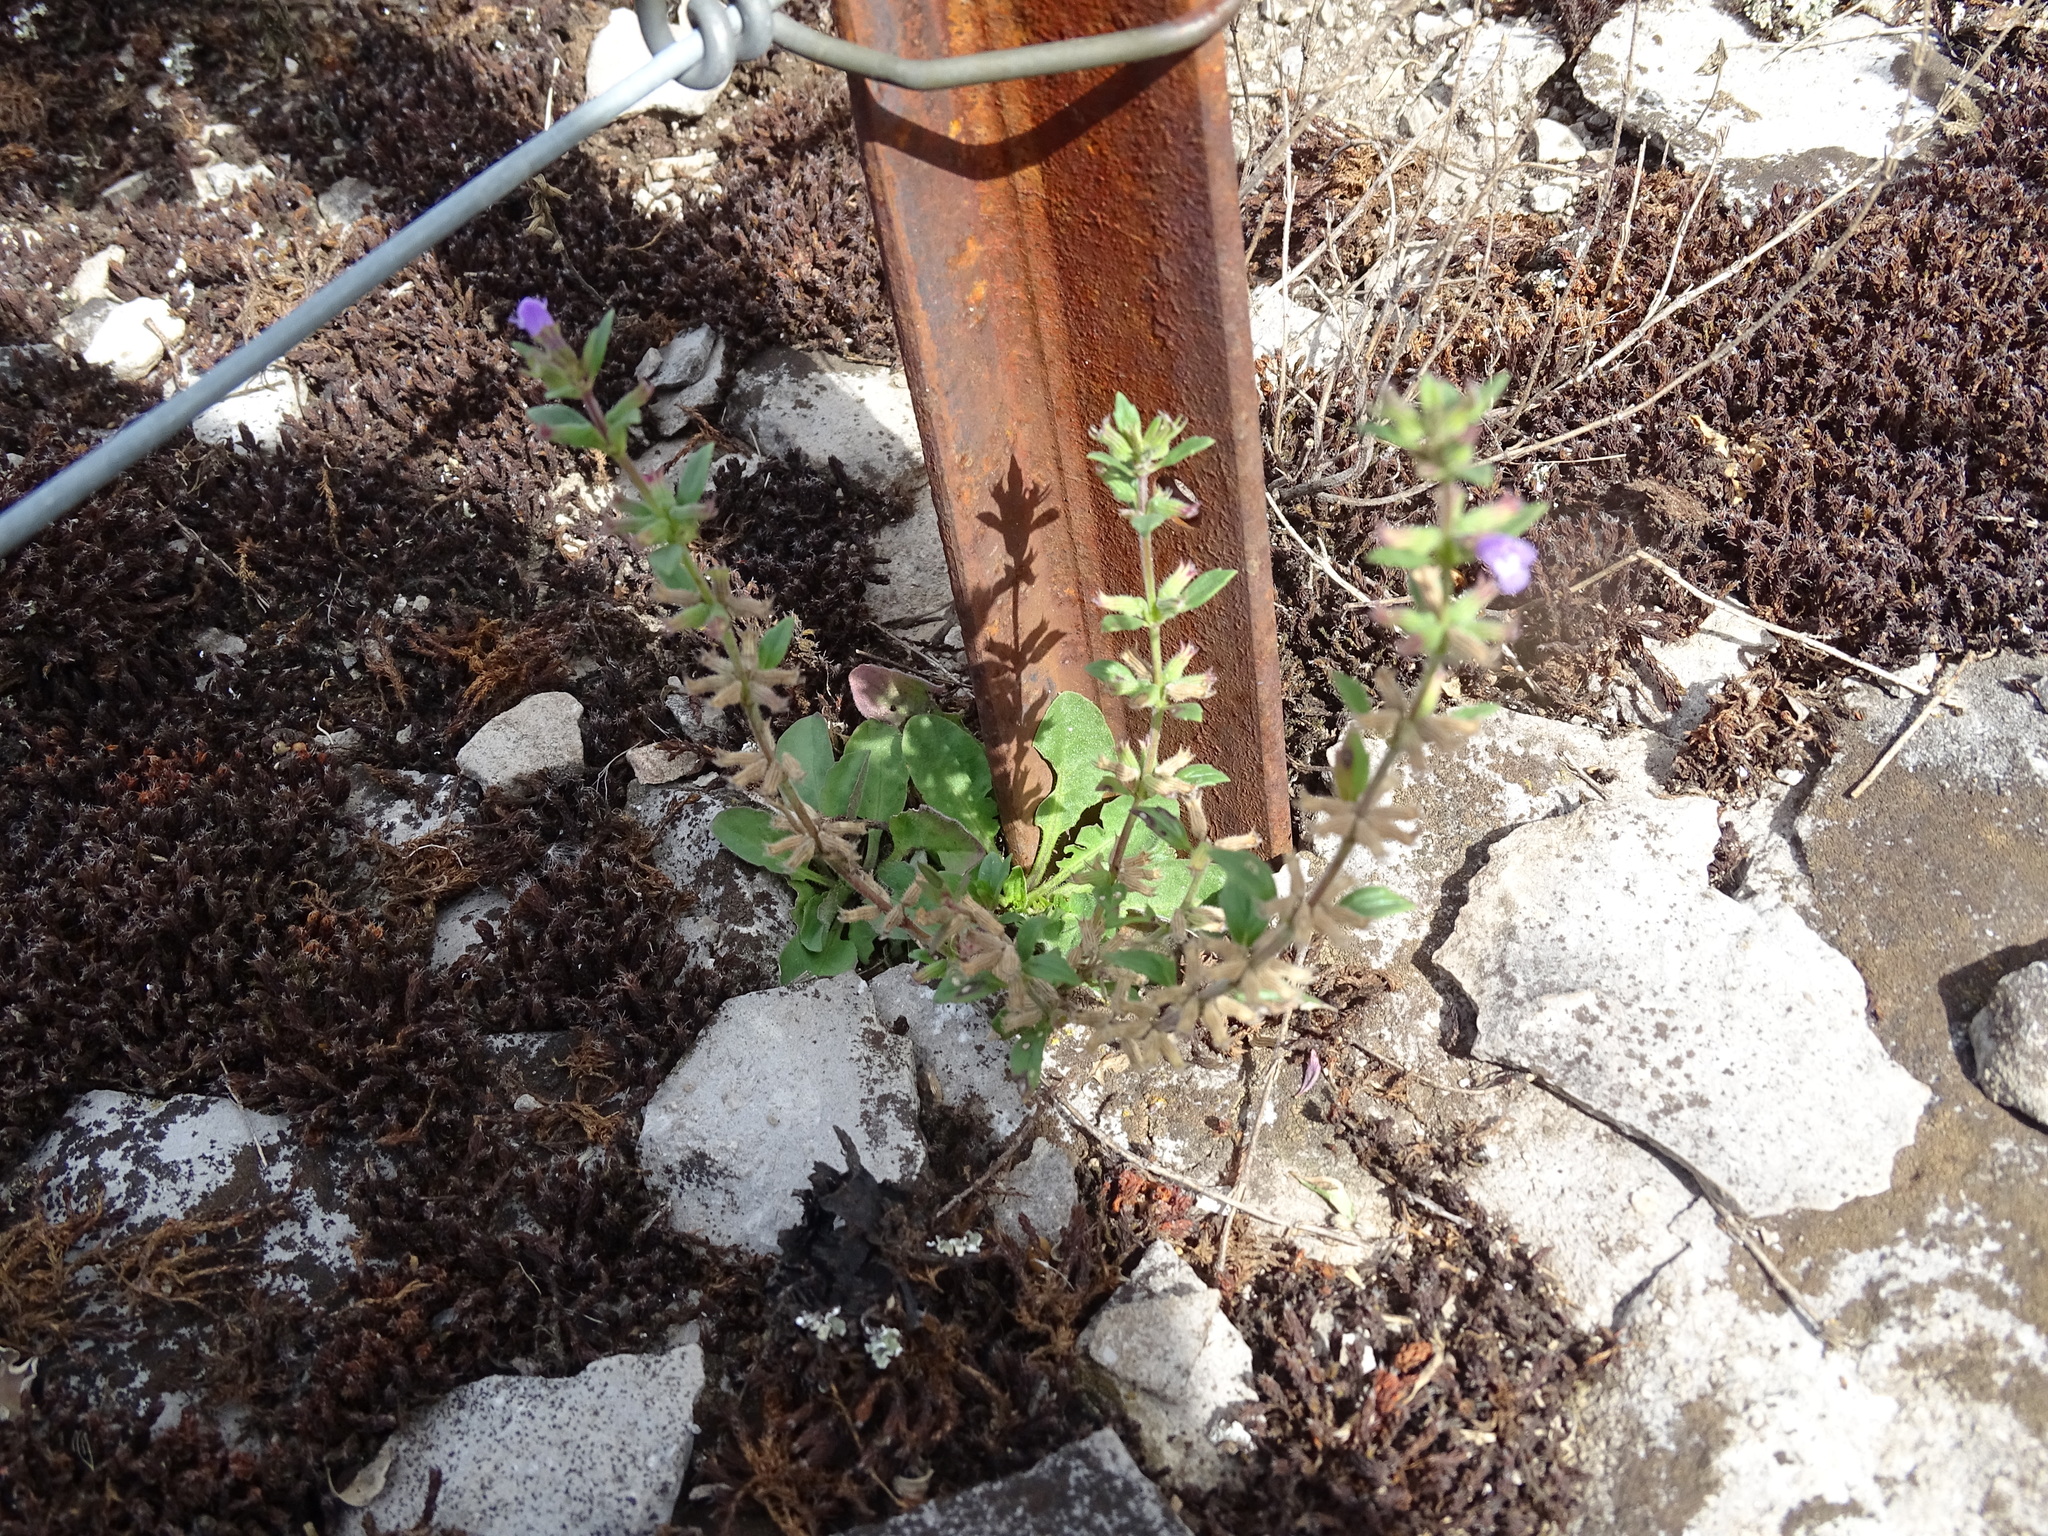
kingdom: Plantae
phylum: Tracheophyta
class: Magnoliopsida
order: Lamiales
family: Lamiaceae
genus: Clinopodium
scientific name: Clinopodium acinos
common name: Basil thyme
